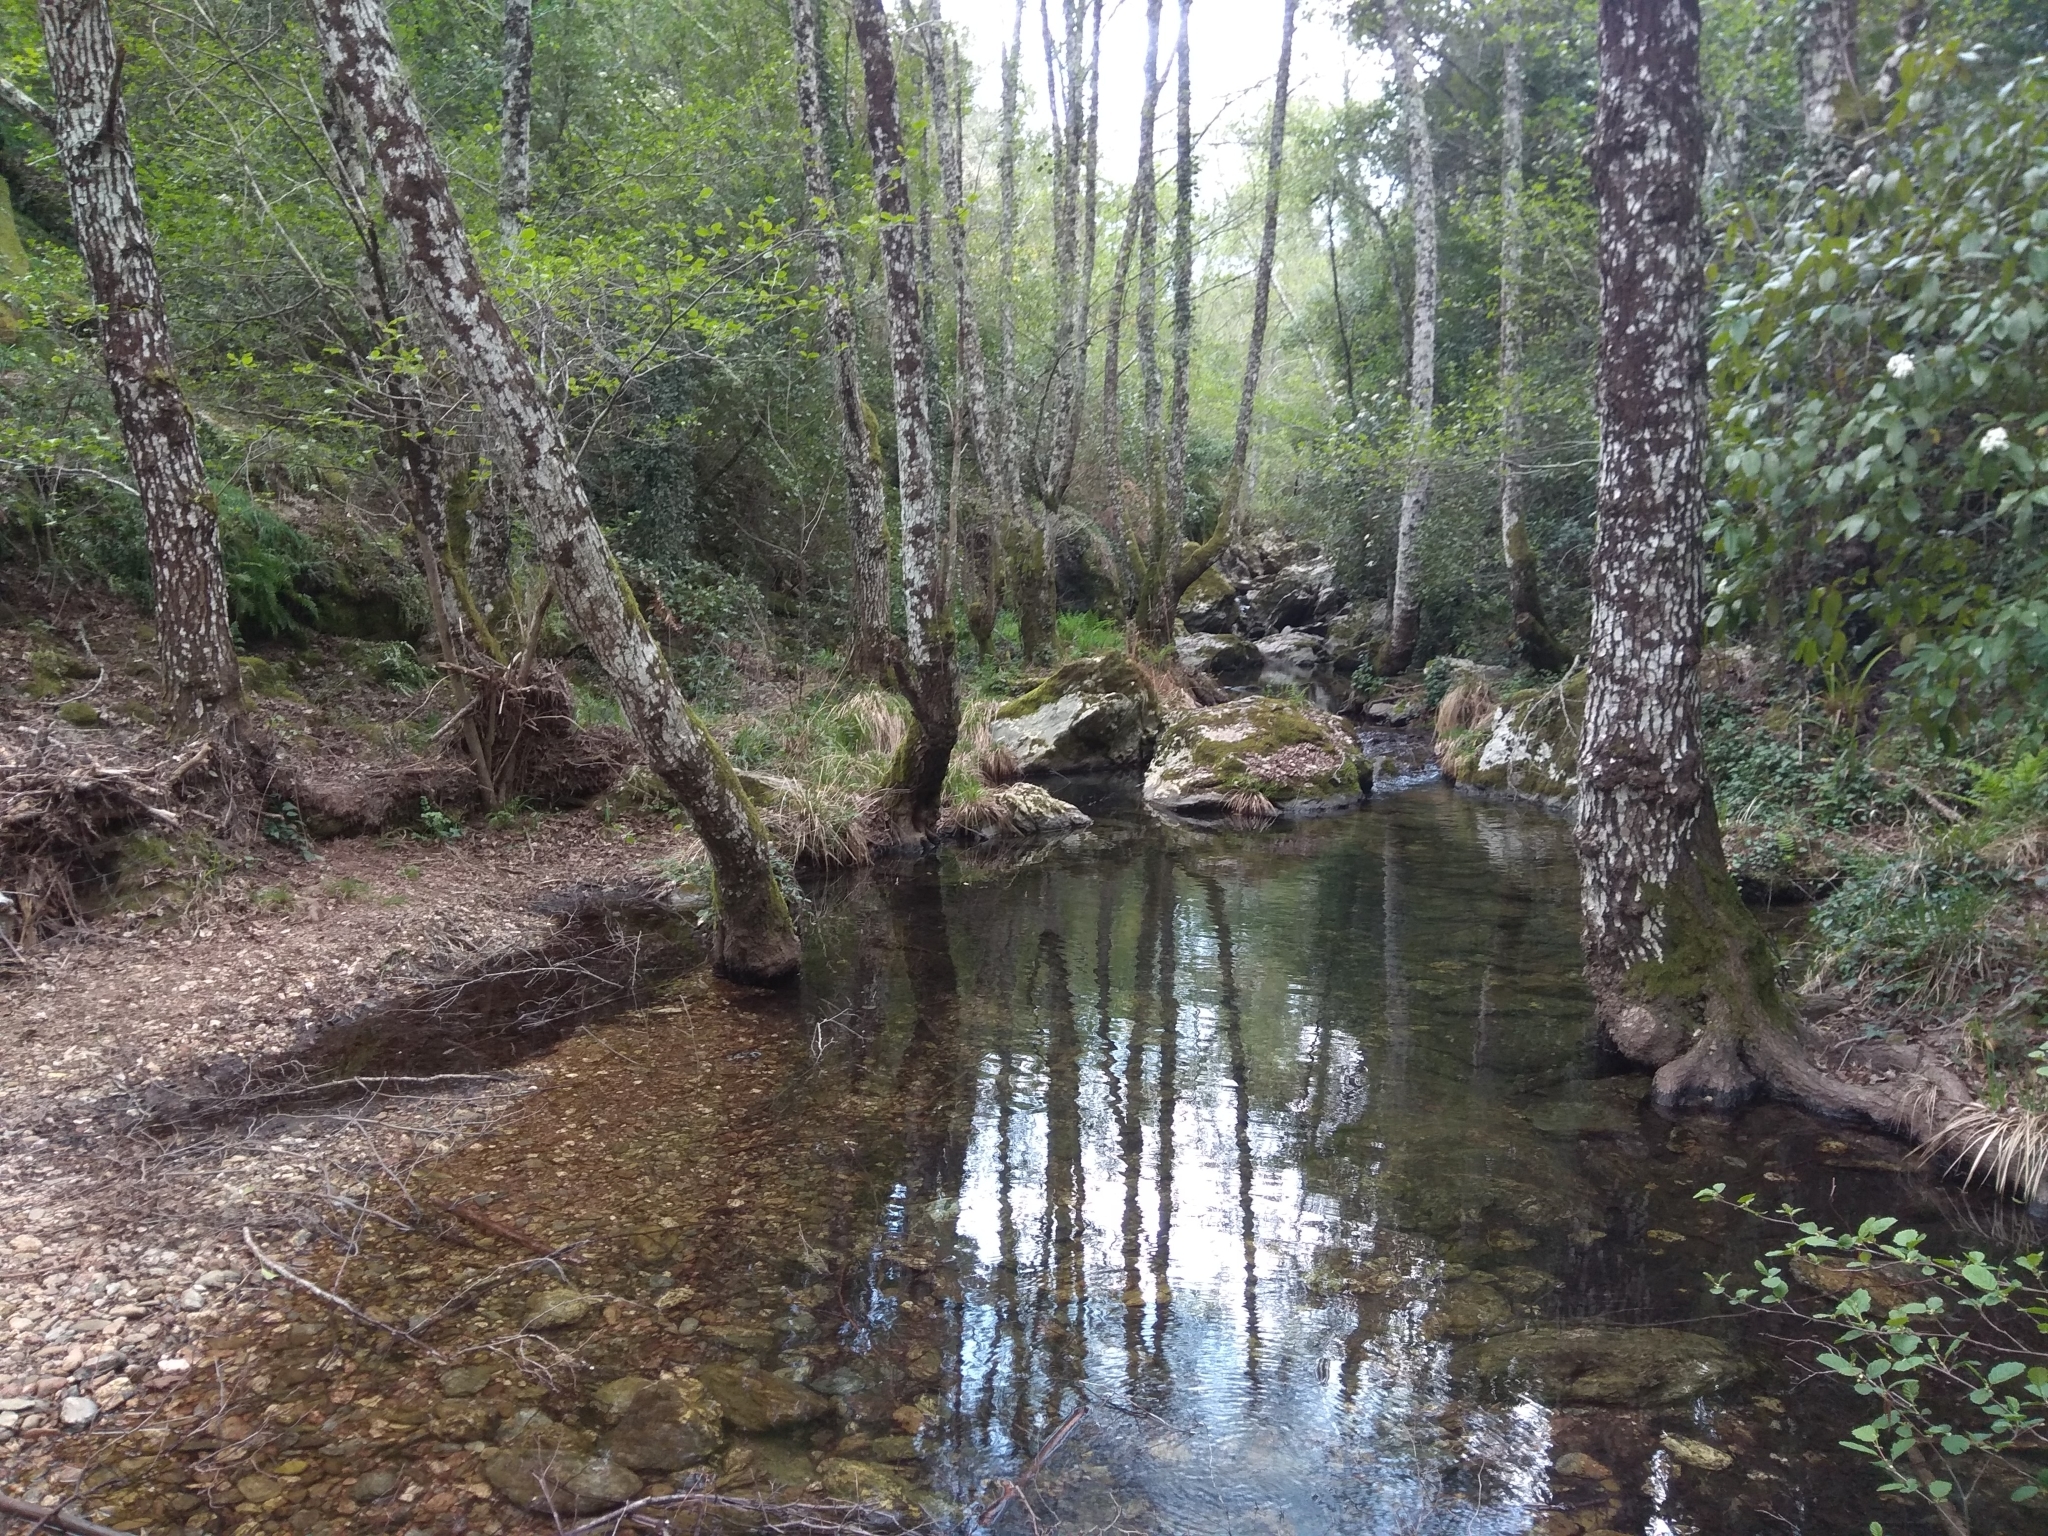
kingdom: Plantae
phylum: Tracheophyta
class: Magnoliopsida
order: Fagales
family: Betulaceae
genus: Alnus
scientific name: Alnus lusitanica
